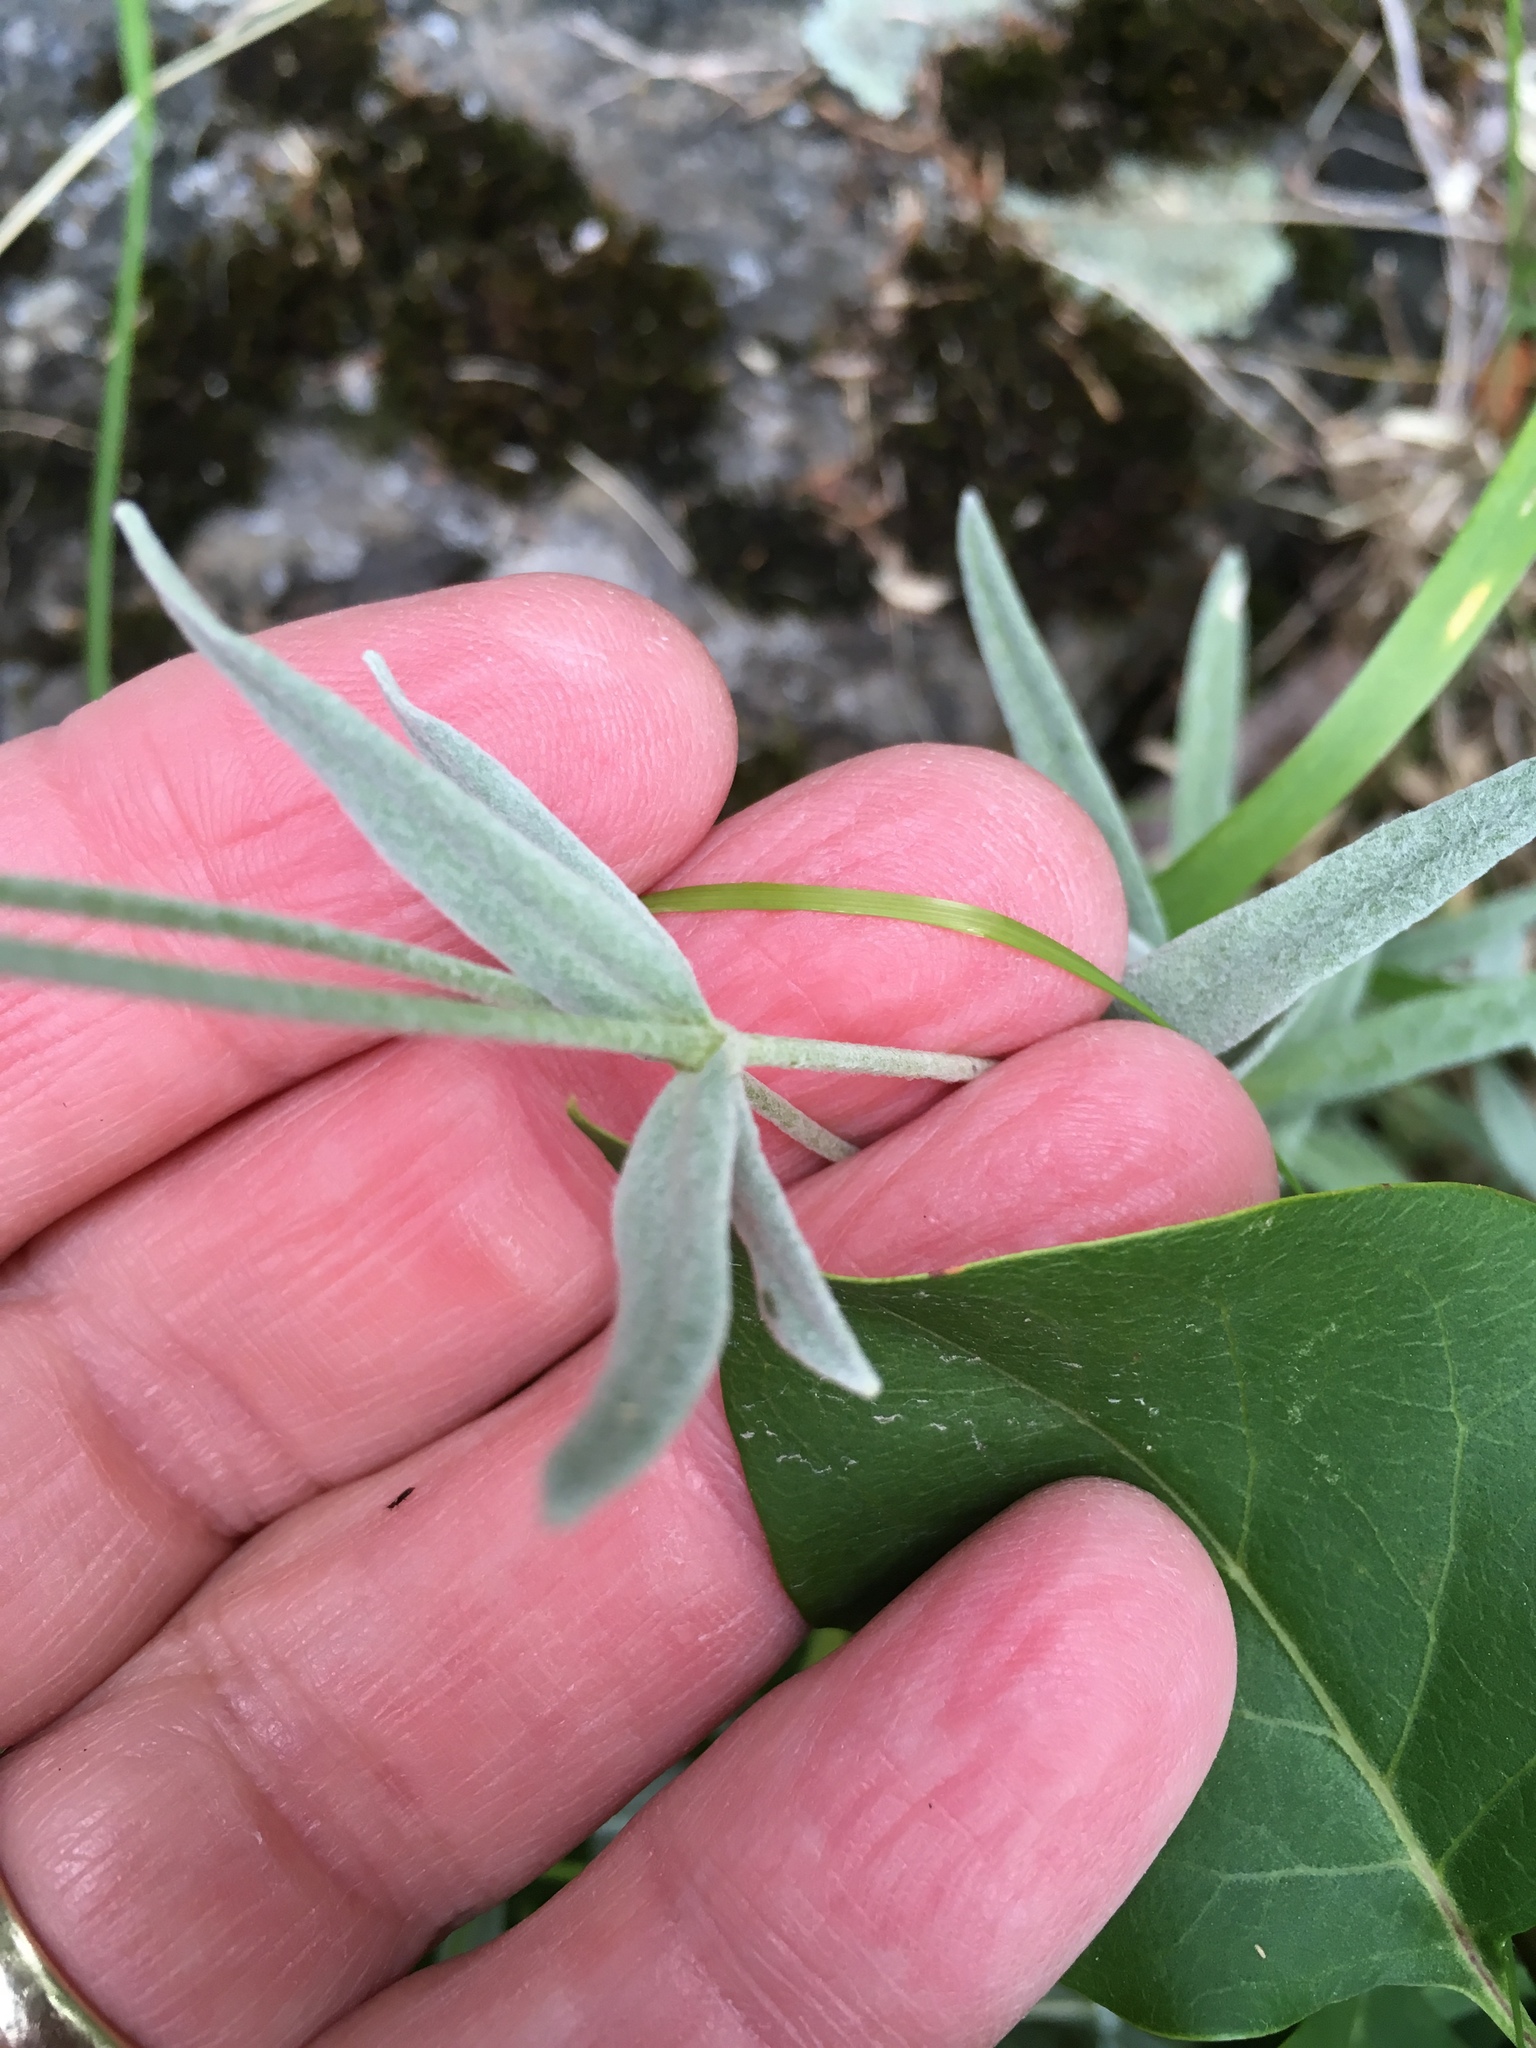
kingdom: Plantae
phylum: Tracheophyta
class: Magnoliopsida
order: Caryophyllales
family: Caryophyllaceae
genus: Cerastium
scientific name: Cerastium tomentosum
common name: Snow-in-summer
